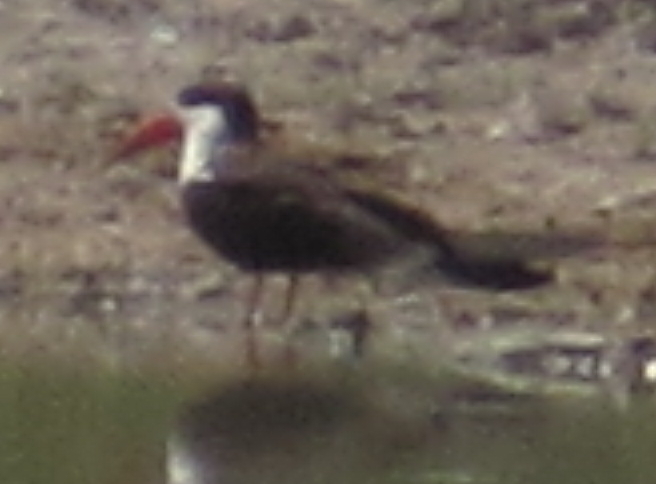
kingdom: Animalia
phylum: Chordata
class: Aves
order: Charadriiformes
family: Laridae
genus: Rynchops
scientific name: Rynchops flavirostris
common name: African skimmer
